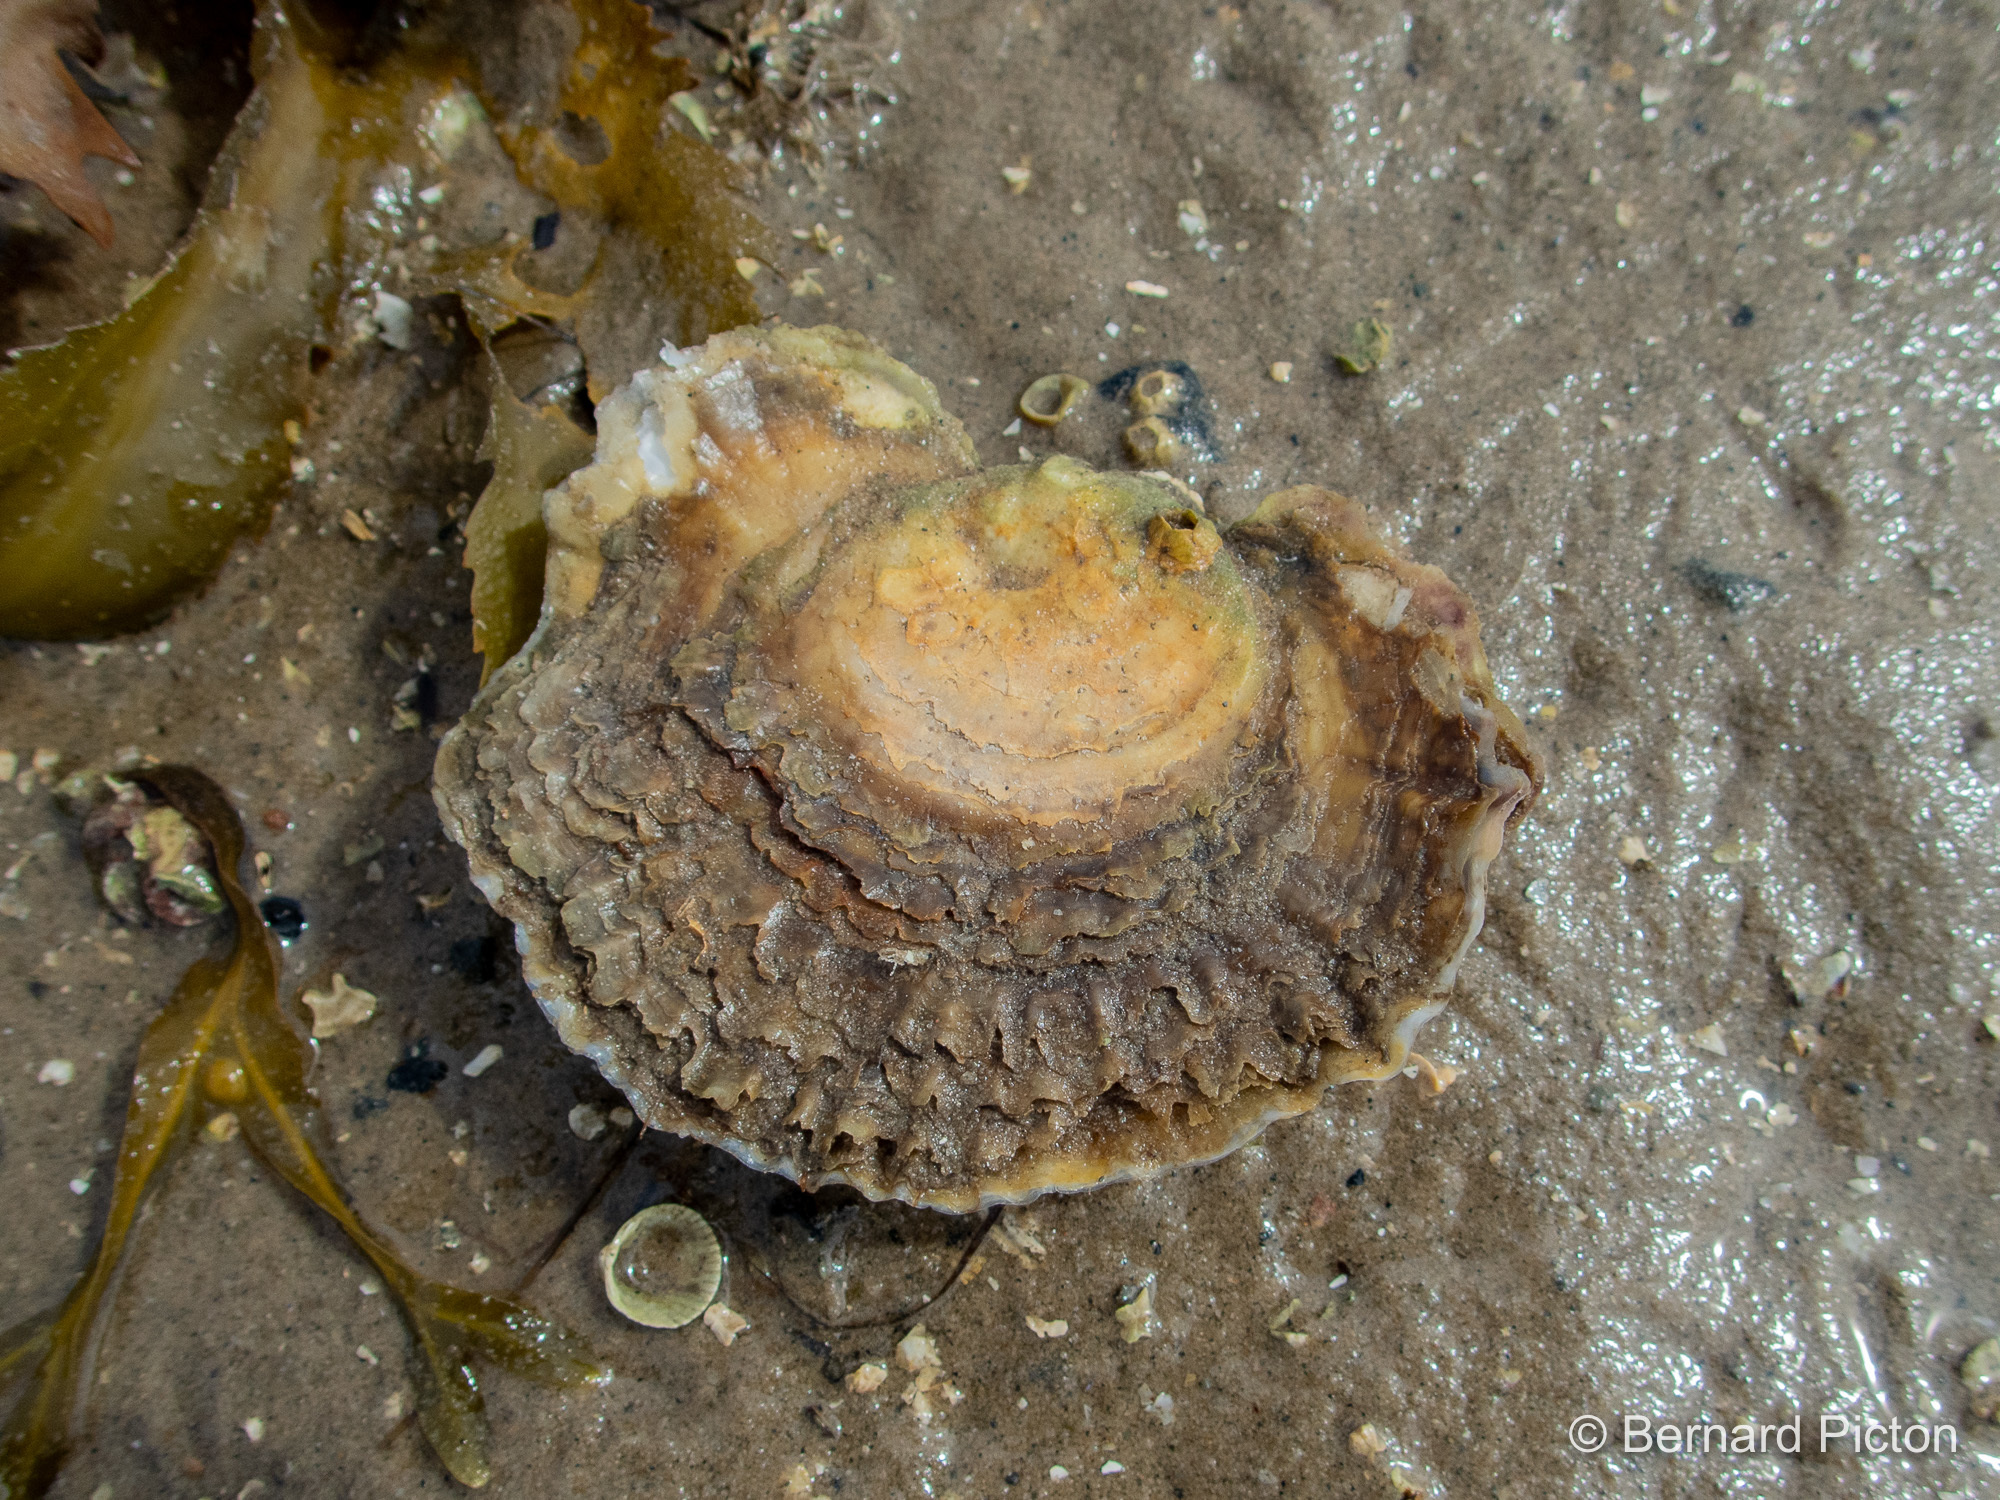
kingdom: Animalia
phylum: Mollusca
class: Bivalvia
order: Ostreida
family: Ostreidae
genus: Ostrea
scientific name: Ostrea edulis
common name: Flat oyster
